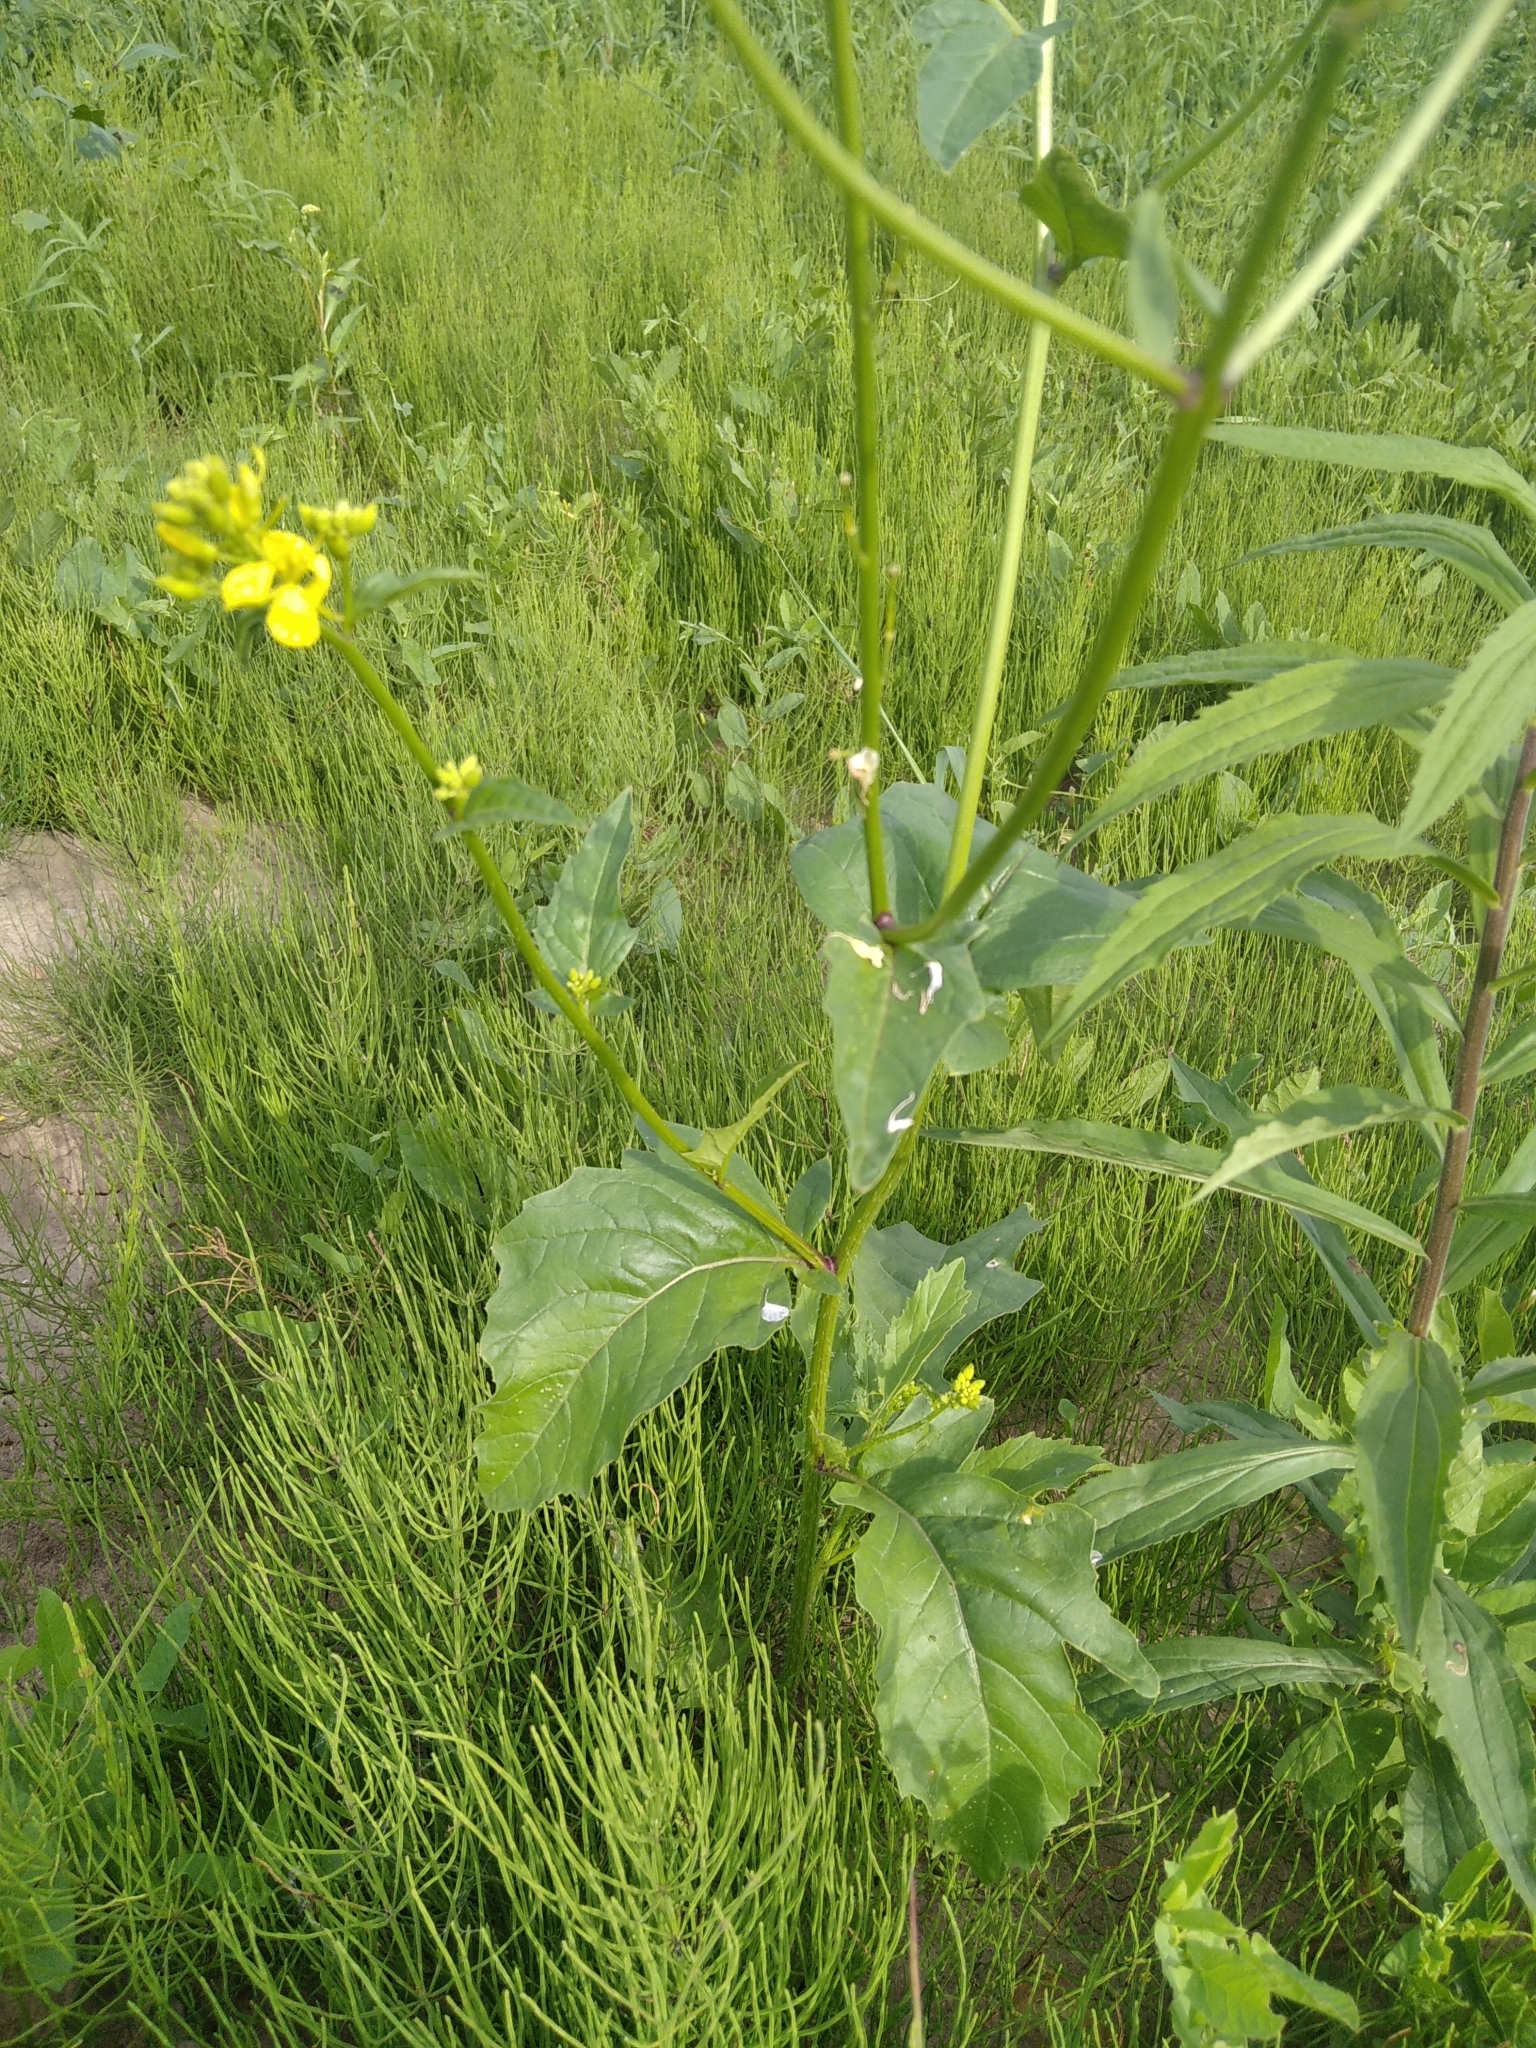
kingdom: Plantae
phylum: Tracheophyta
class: Magnoliopsida
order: Brassicales
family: Brassicaceae
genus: Sinapis
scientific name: Sinapis arvensis
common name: Charlock
